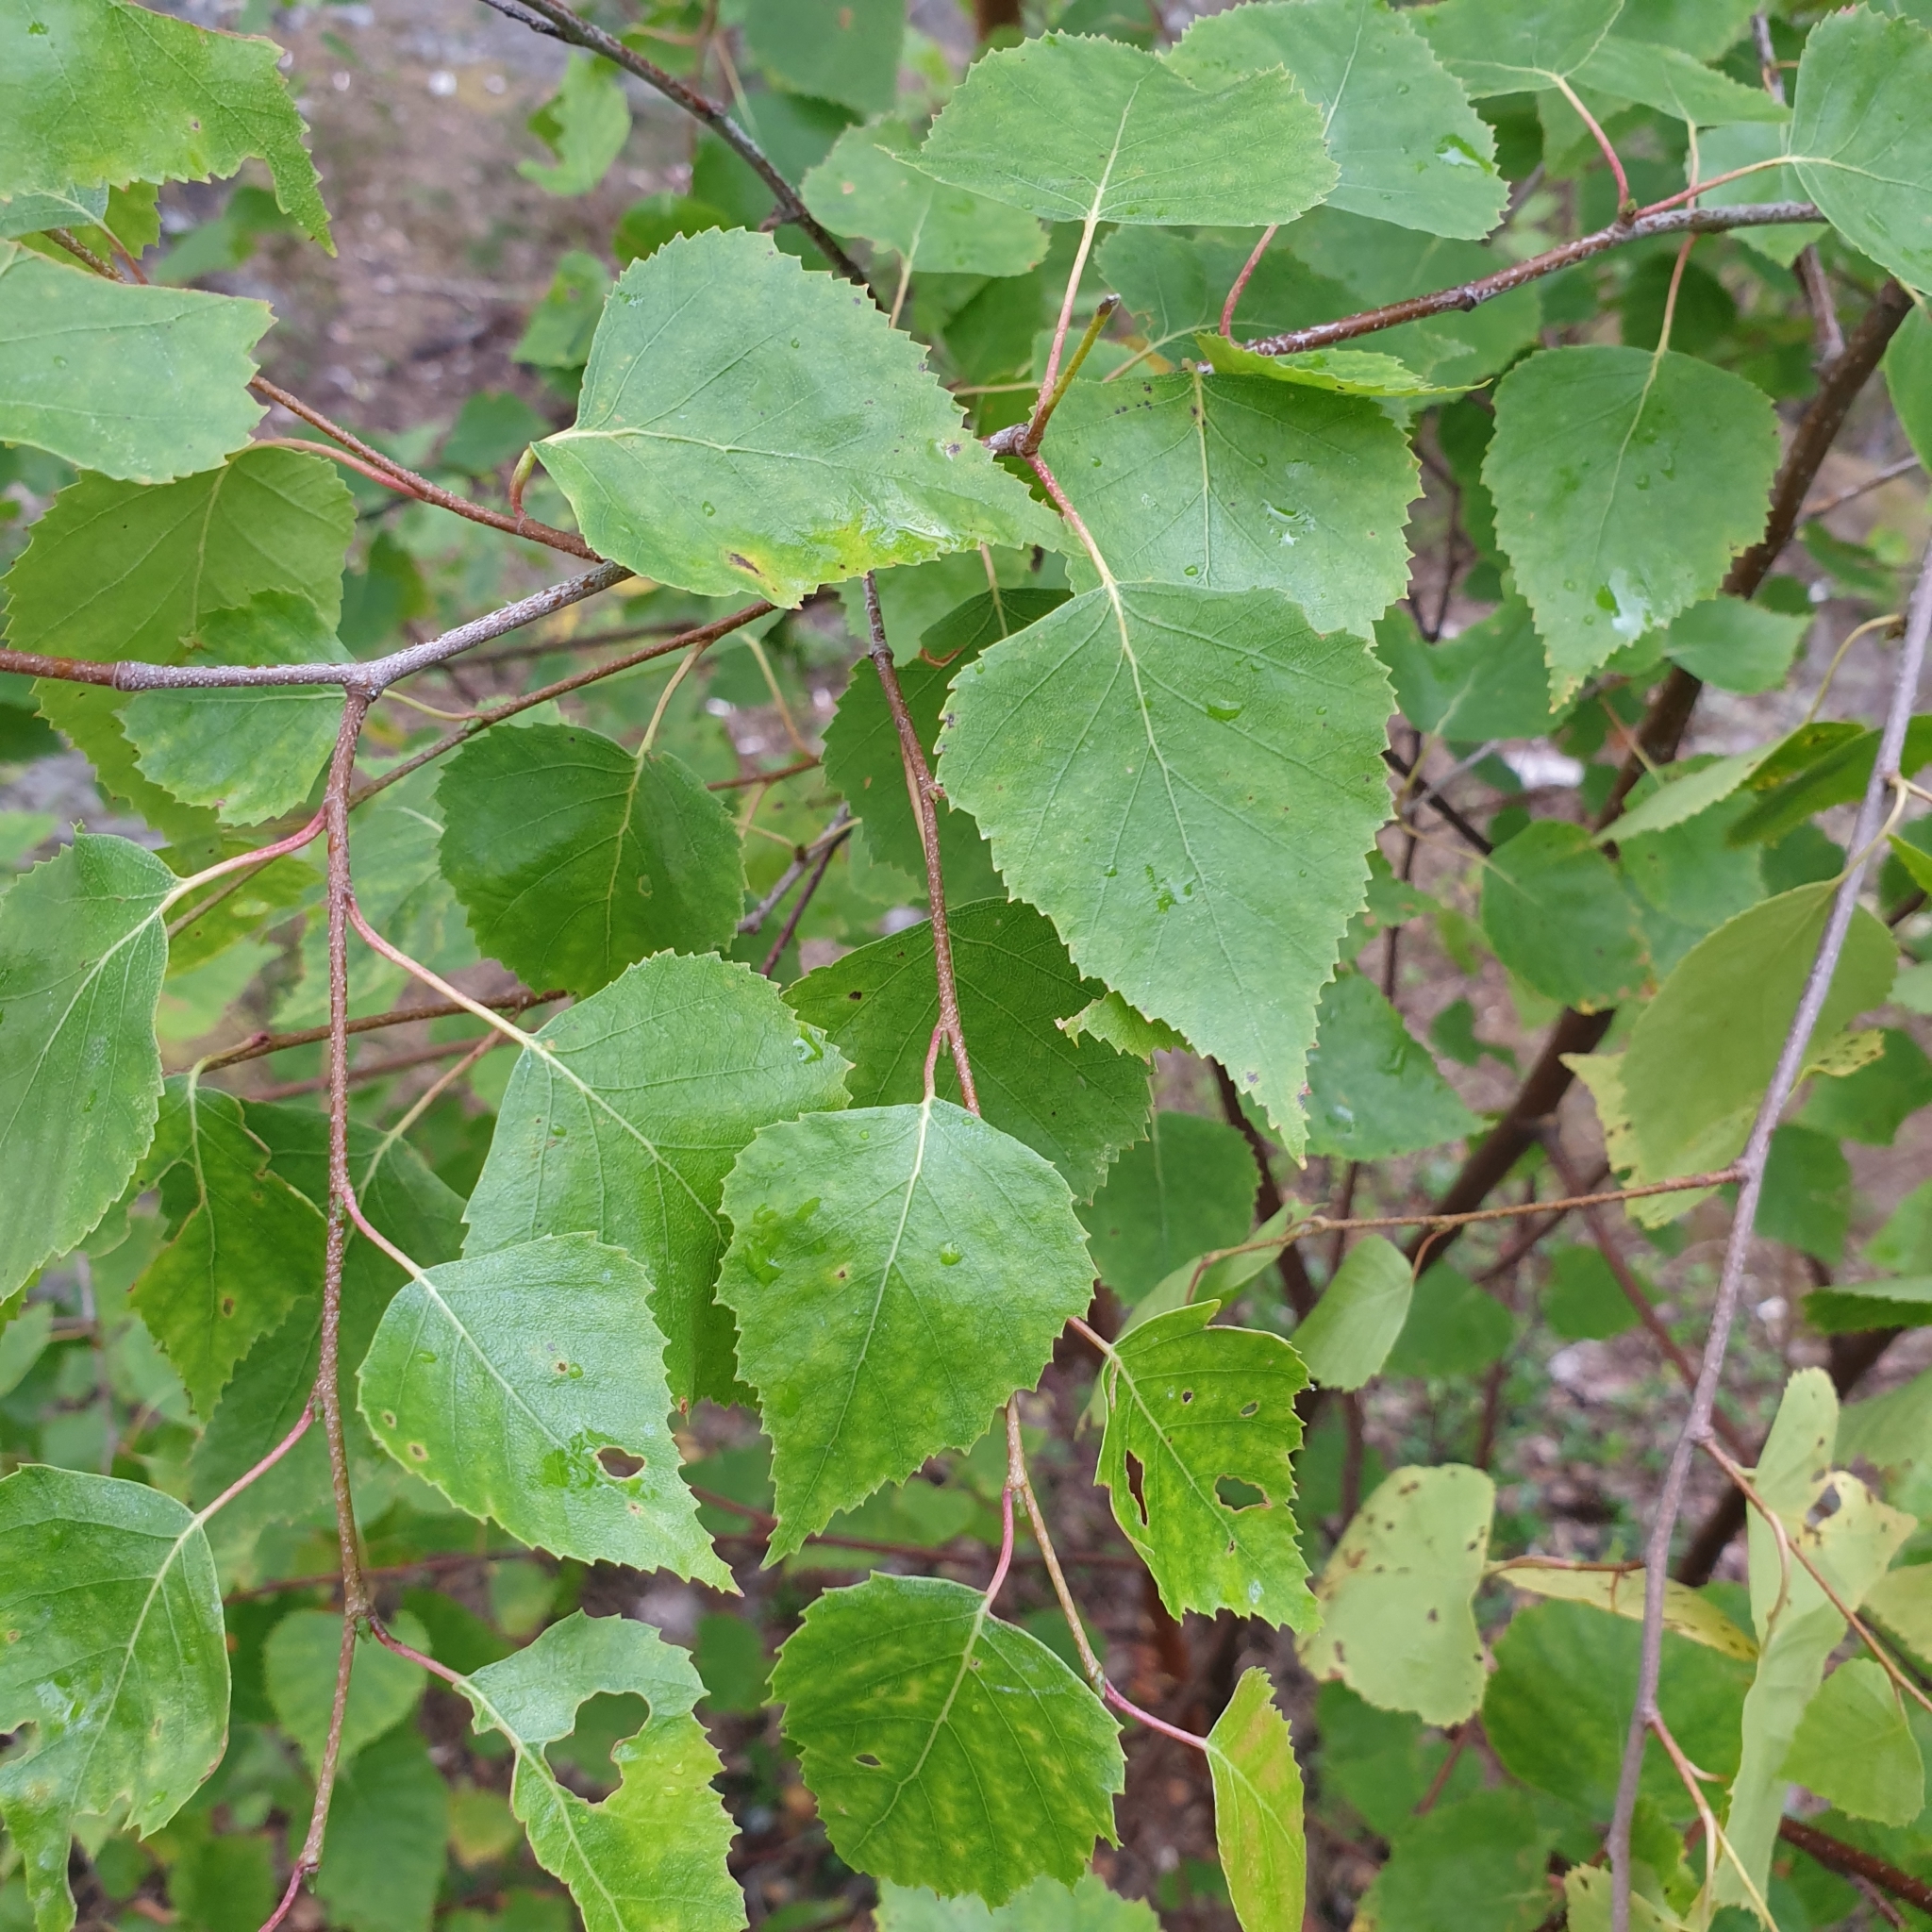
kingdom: Plantae
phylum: Tracheophyta
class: Magnoliopsida
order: Fagales
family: Betulaceae
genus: Betula
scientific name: Betula pendula
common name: Silver birch
